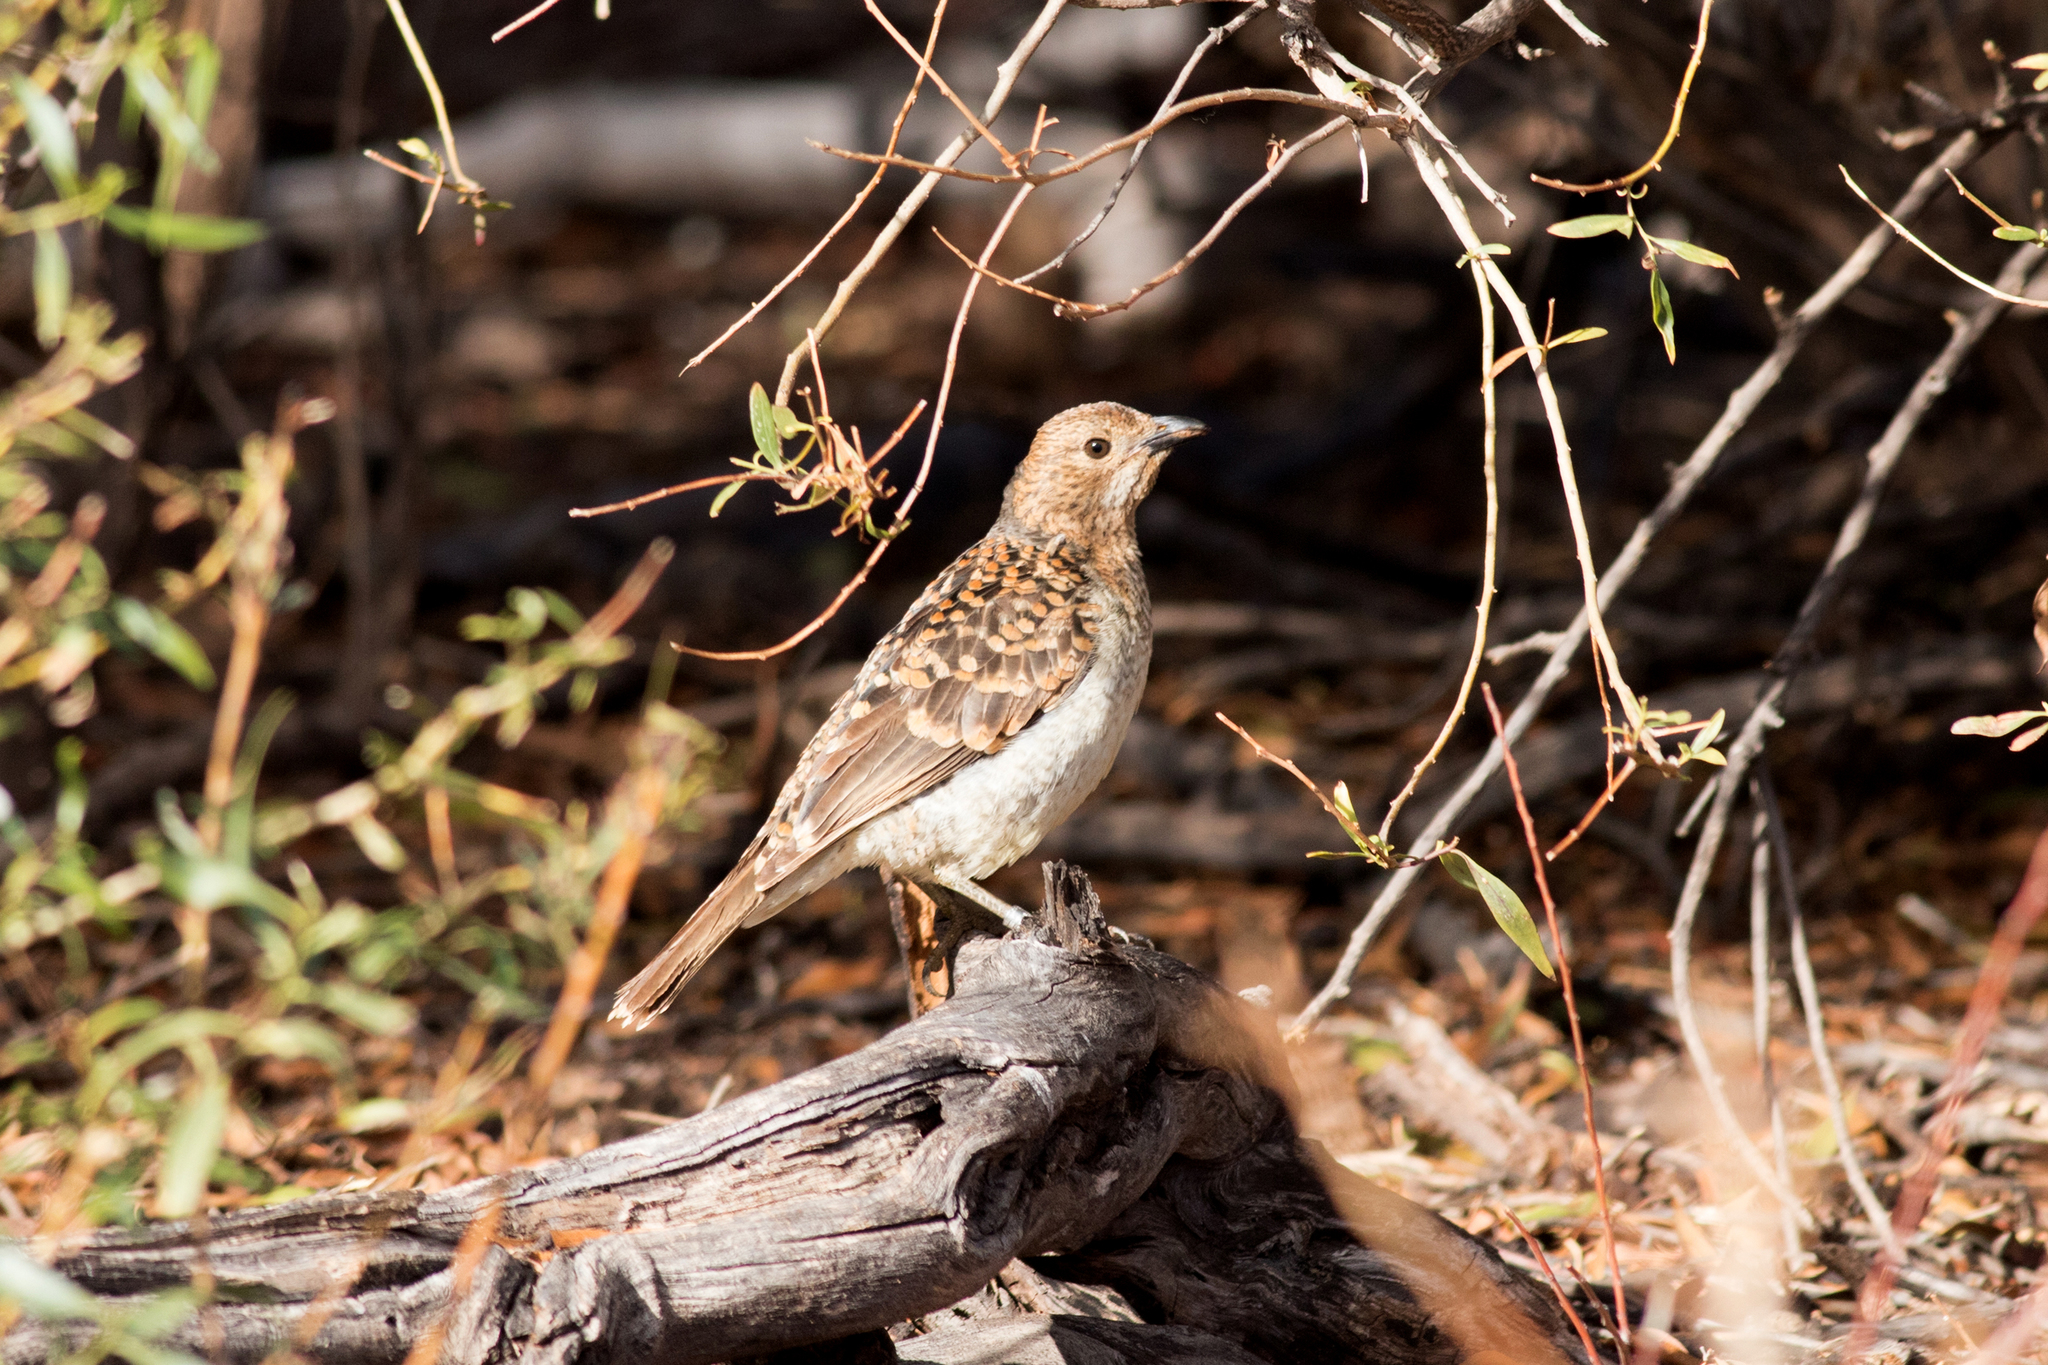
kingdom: Animalia
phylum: Chordata
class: Aves
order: Passeriformes
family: Ptilonorhynchidae
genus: Chlamydera
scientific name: Chlamydera maculata
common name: Spotted bowerbird
